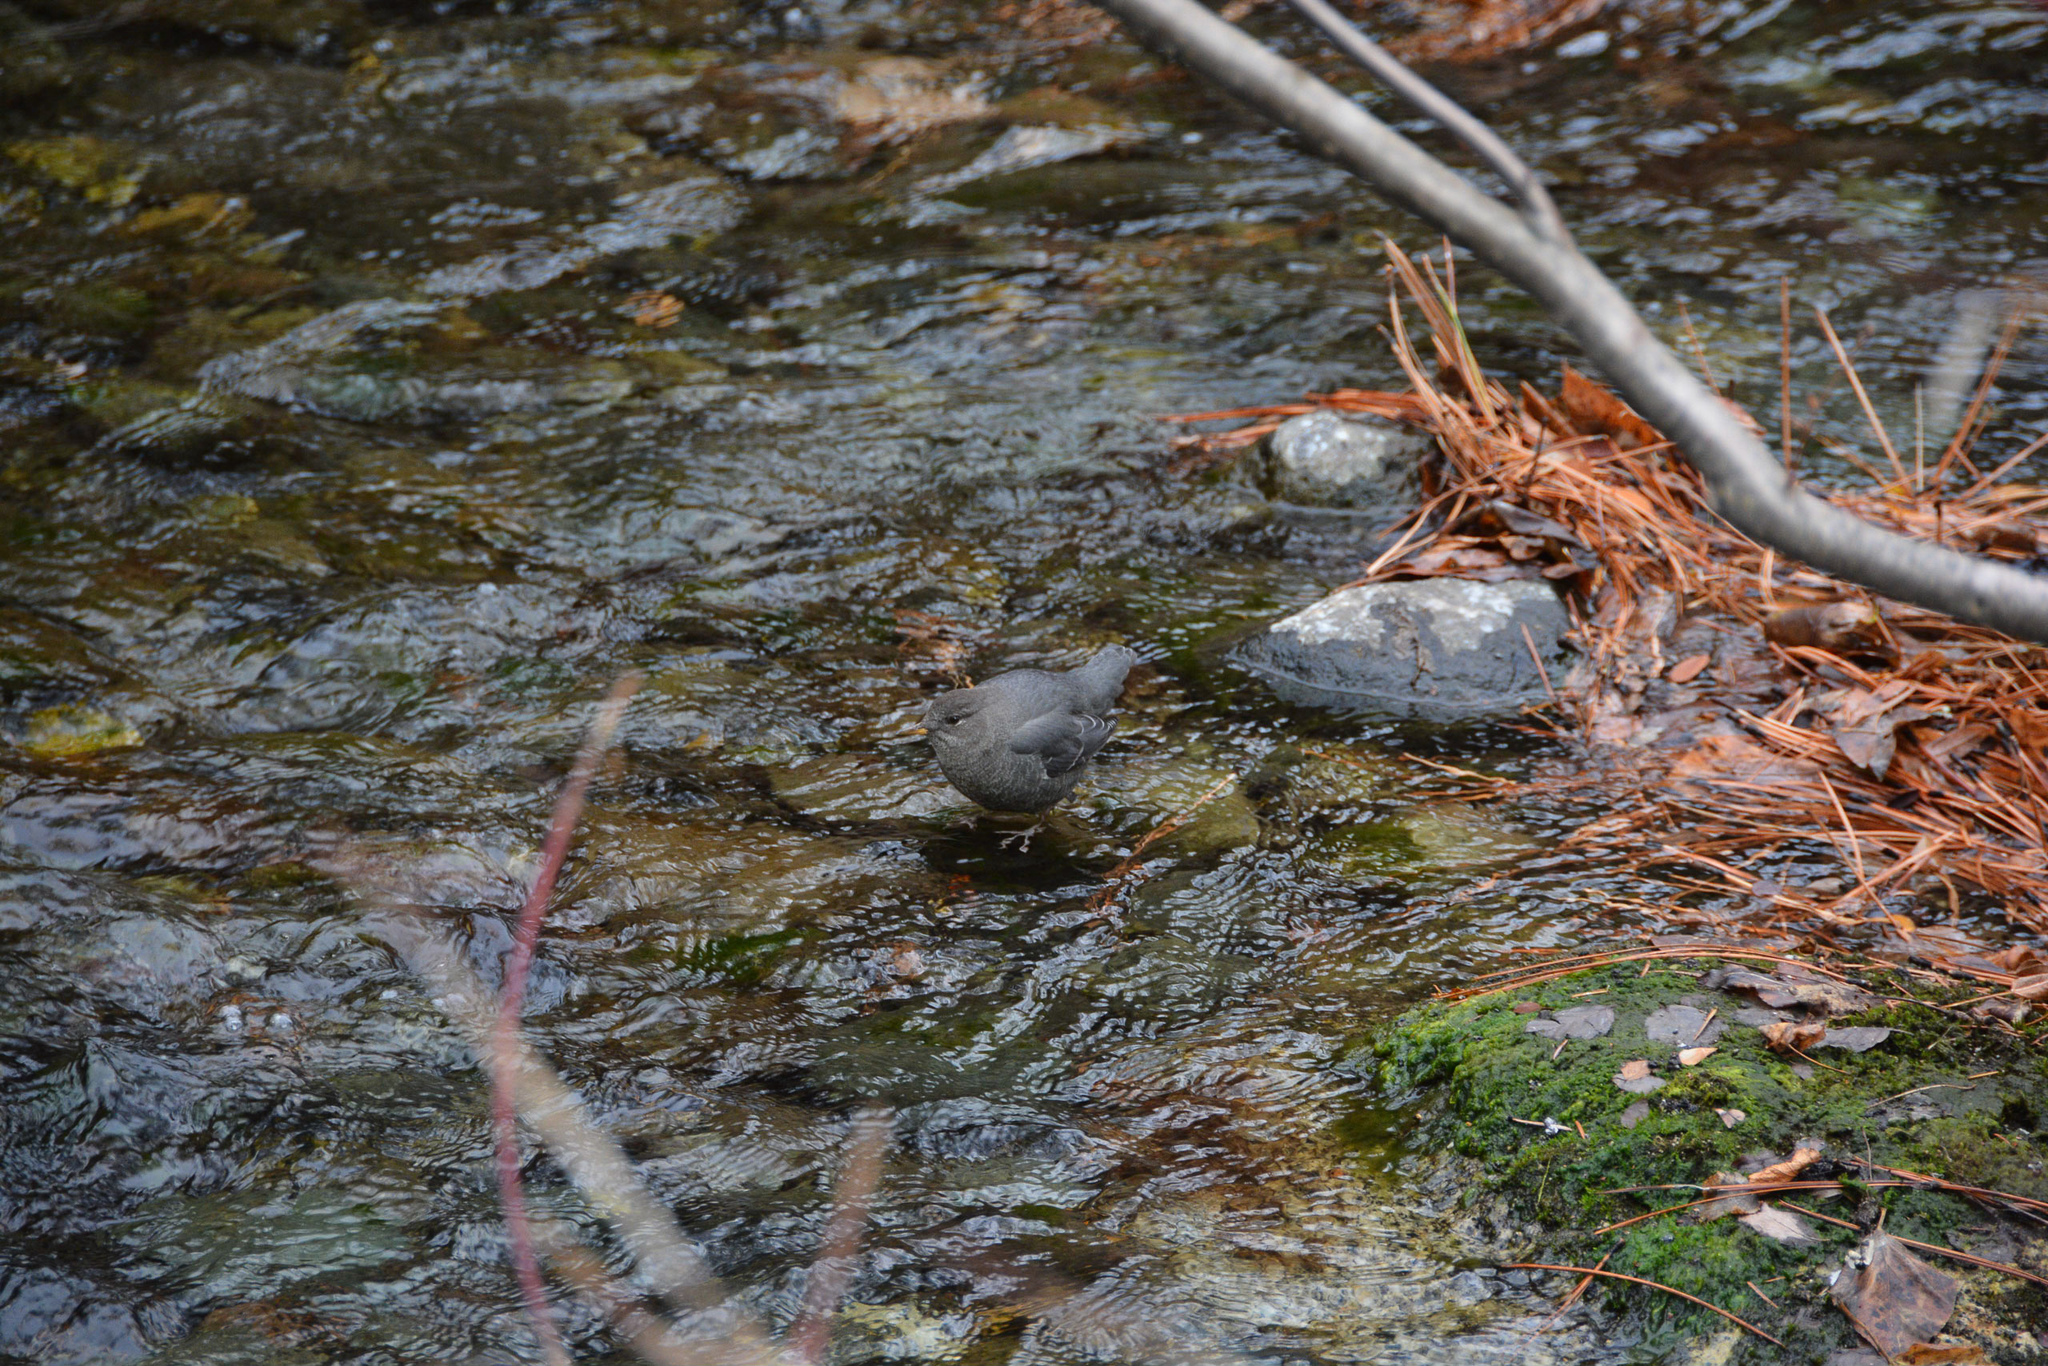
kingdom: Animalia
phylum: Chordata
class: Aves
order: Passeriformes
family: Cinclidae
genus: Cinclus
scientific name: Cinclus mexicanus
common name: American dipper
